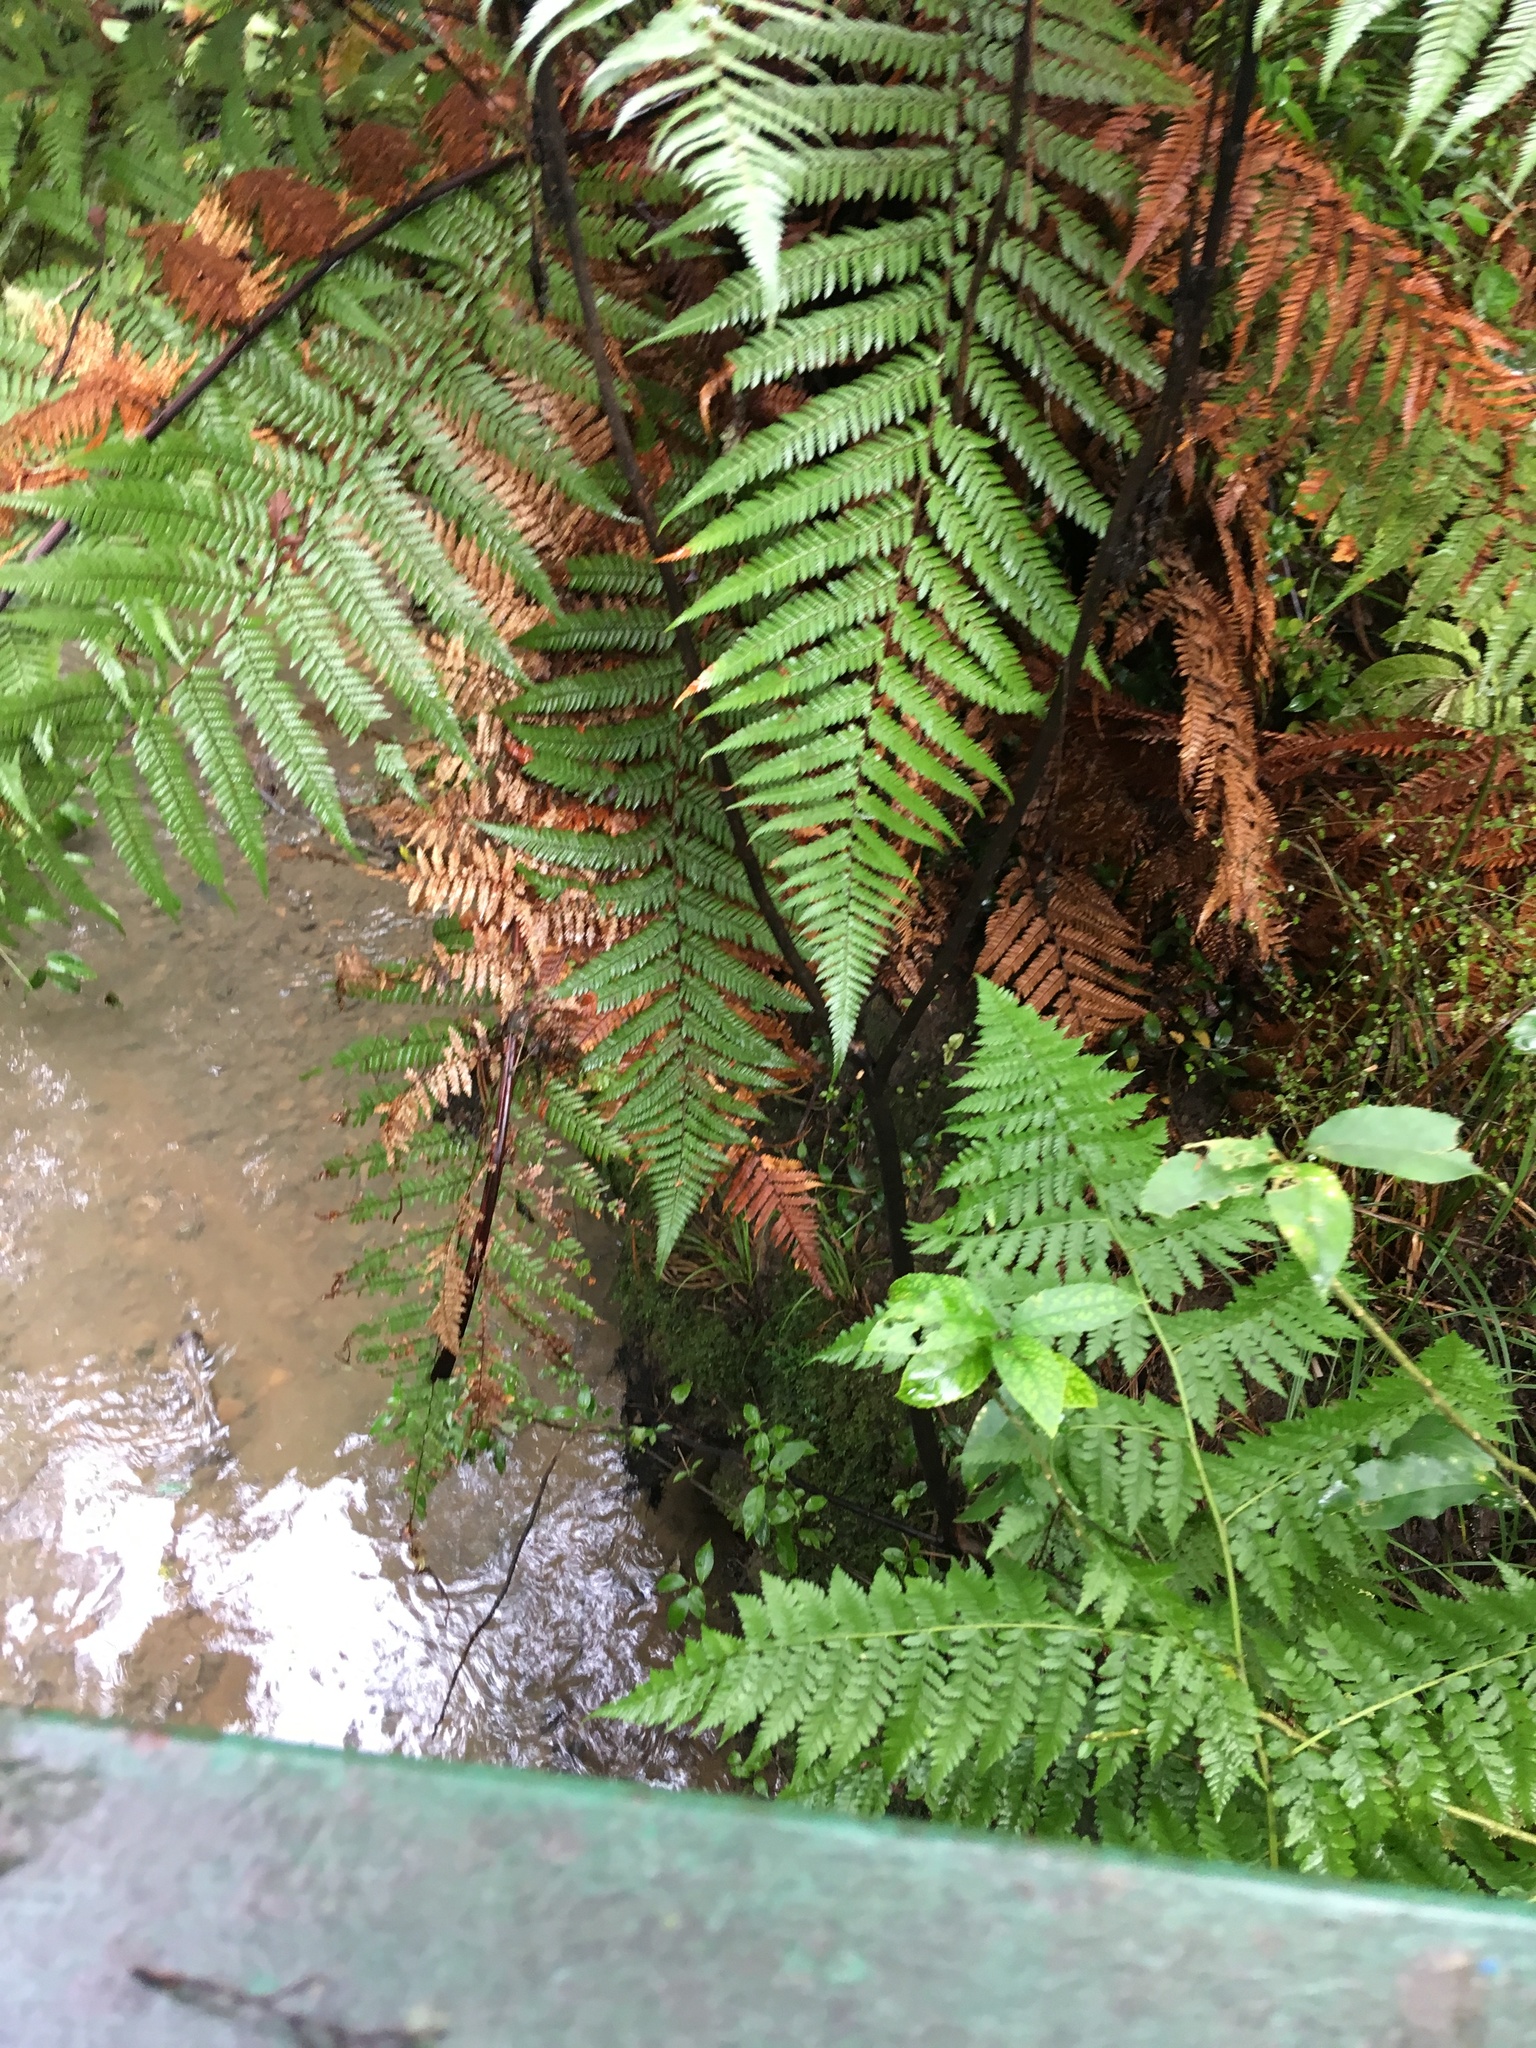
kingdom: Plantae
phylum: Tracheophyta
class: Polypodiopsida
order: Polypodiales
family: Athyriaceae
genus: Diplazium
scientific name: Diplazium australe
